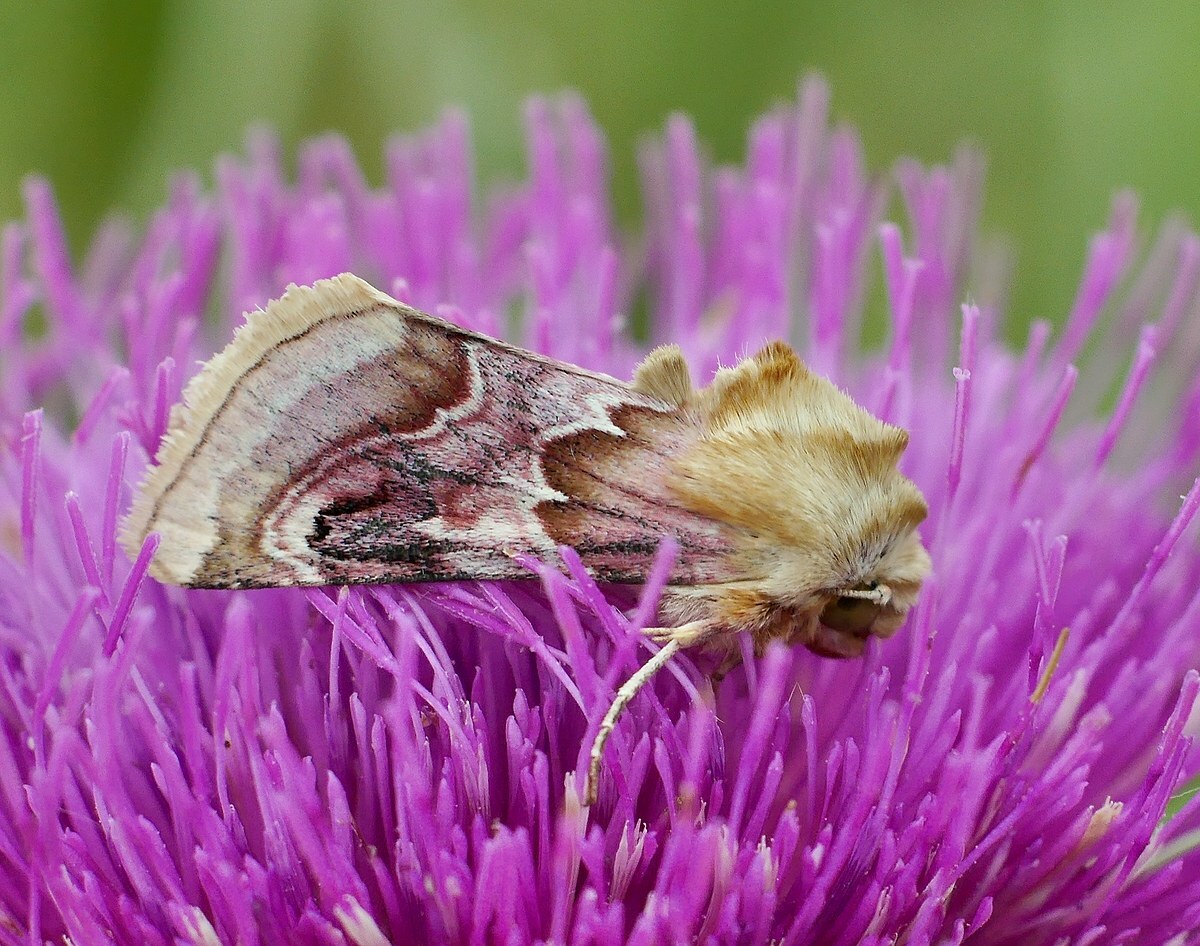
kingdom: Animalia
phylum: Arthropoda
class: Insecta
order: Lepidoptera
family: Noctuidae
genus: Periphanes
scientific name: Periphanes delphinii
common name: Pease blossom
